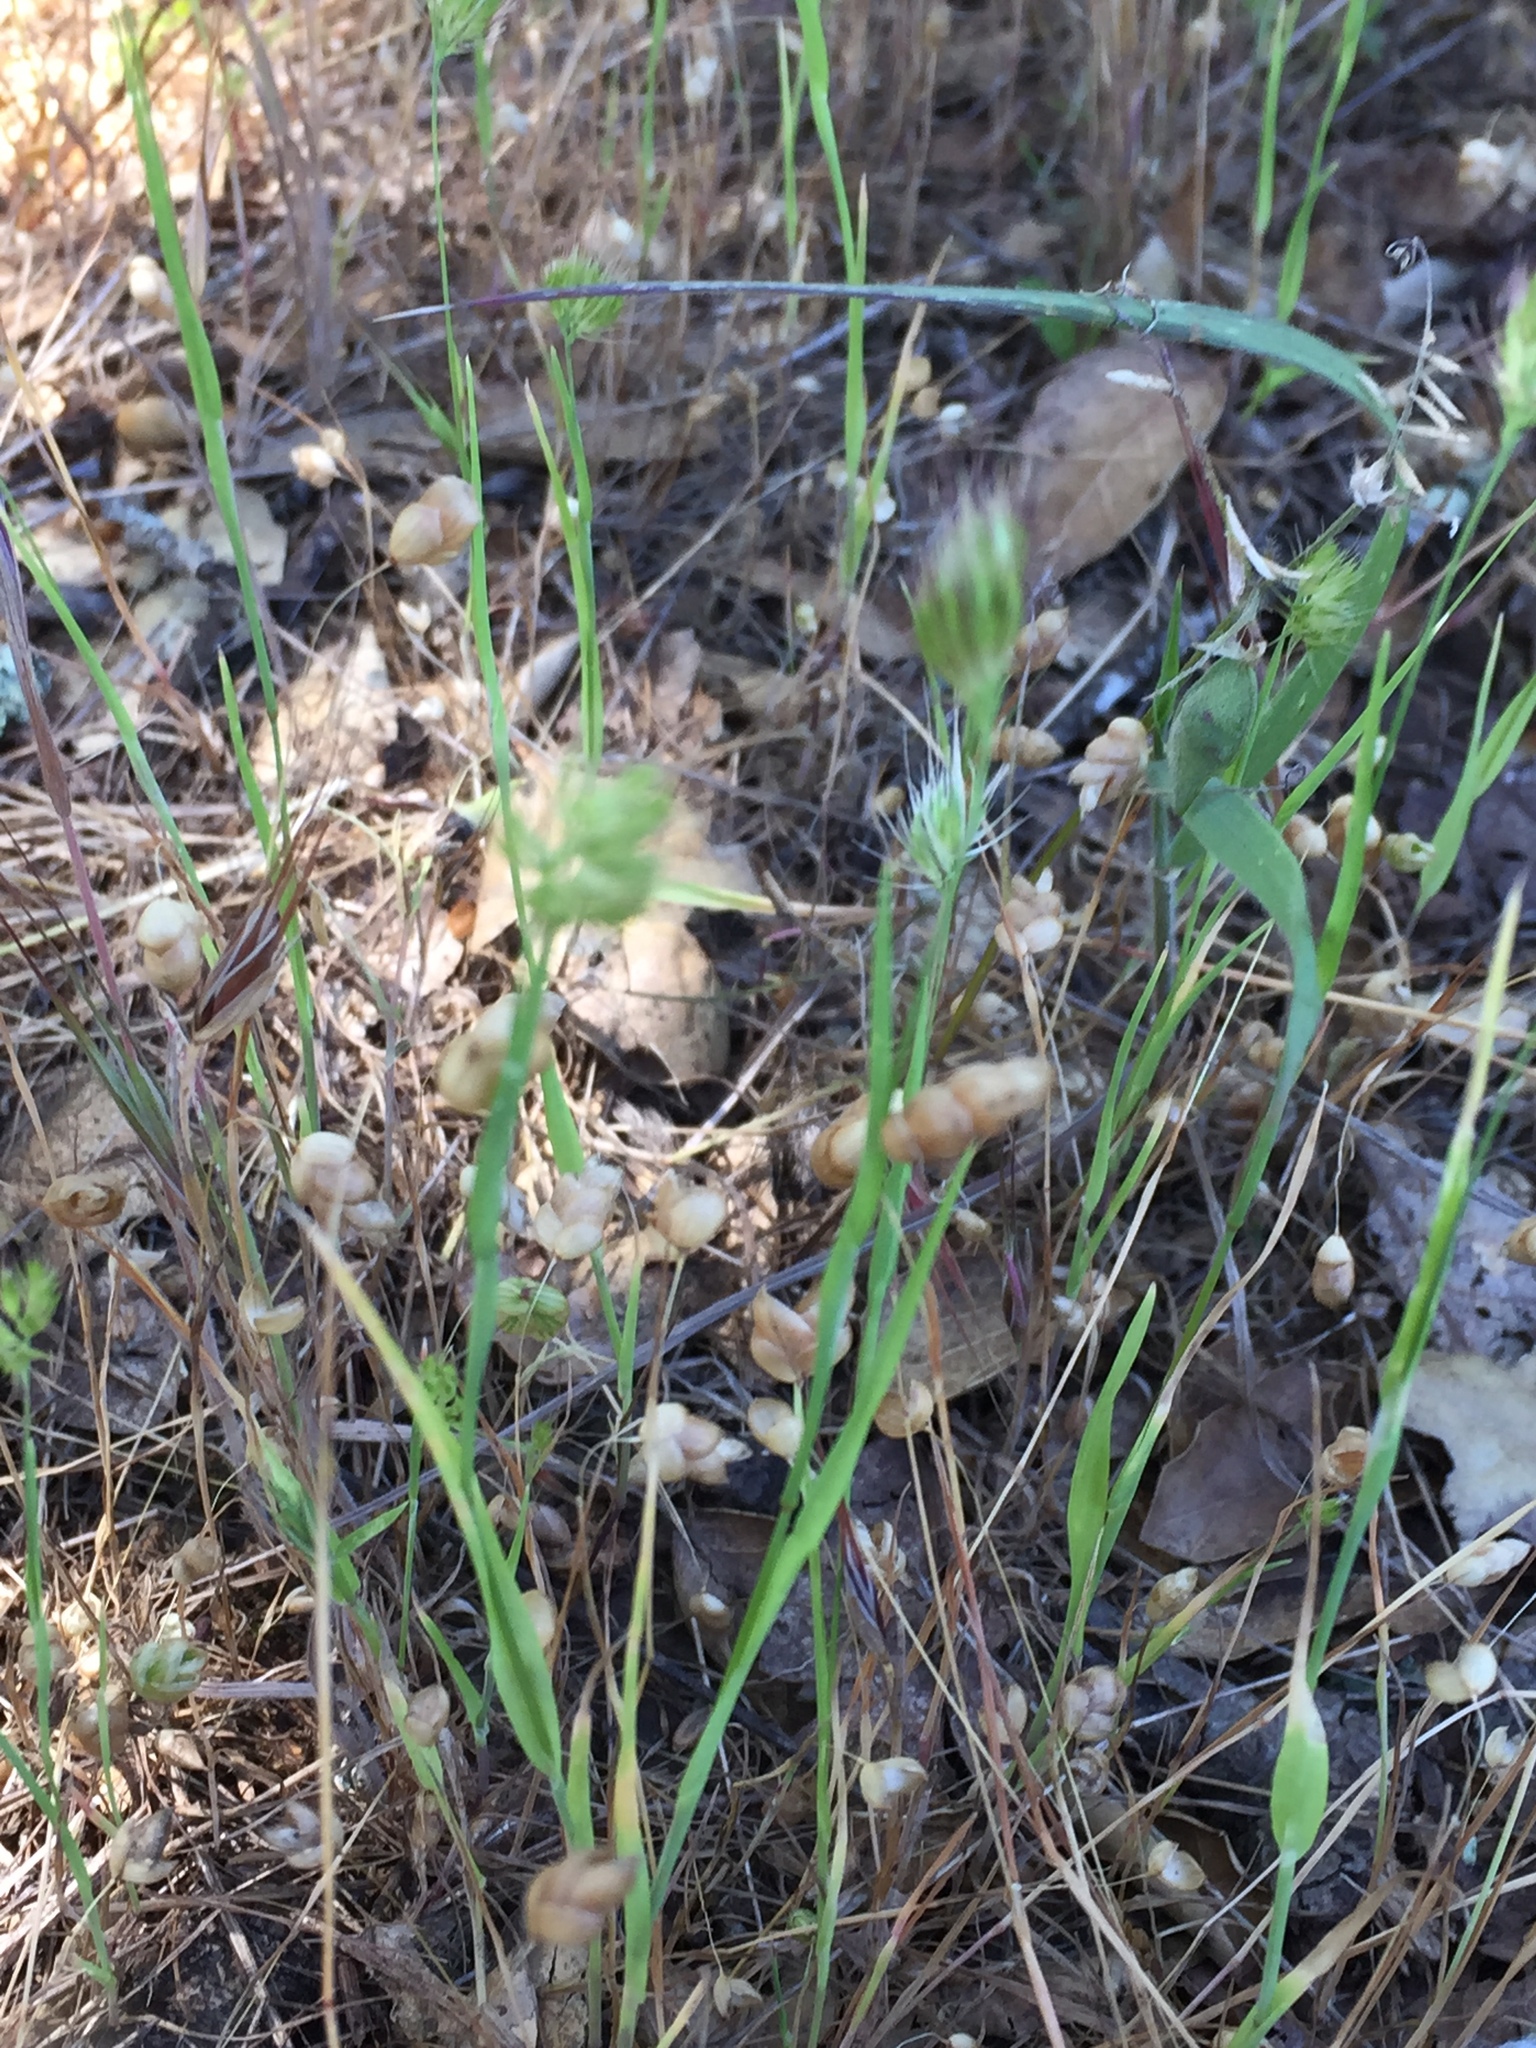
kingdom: Plantae
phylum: Tracheophyta
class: Liliopsida
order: Poales
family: Poaceae
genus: Cynosurus
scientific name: Cynosurus echinatus
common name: Rough dog's-tail
